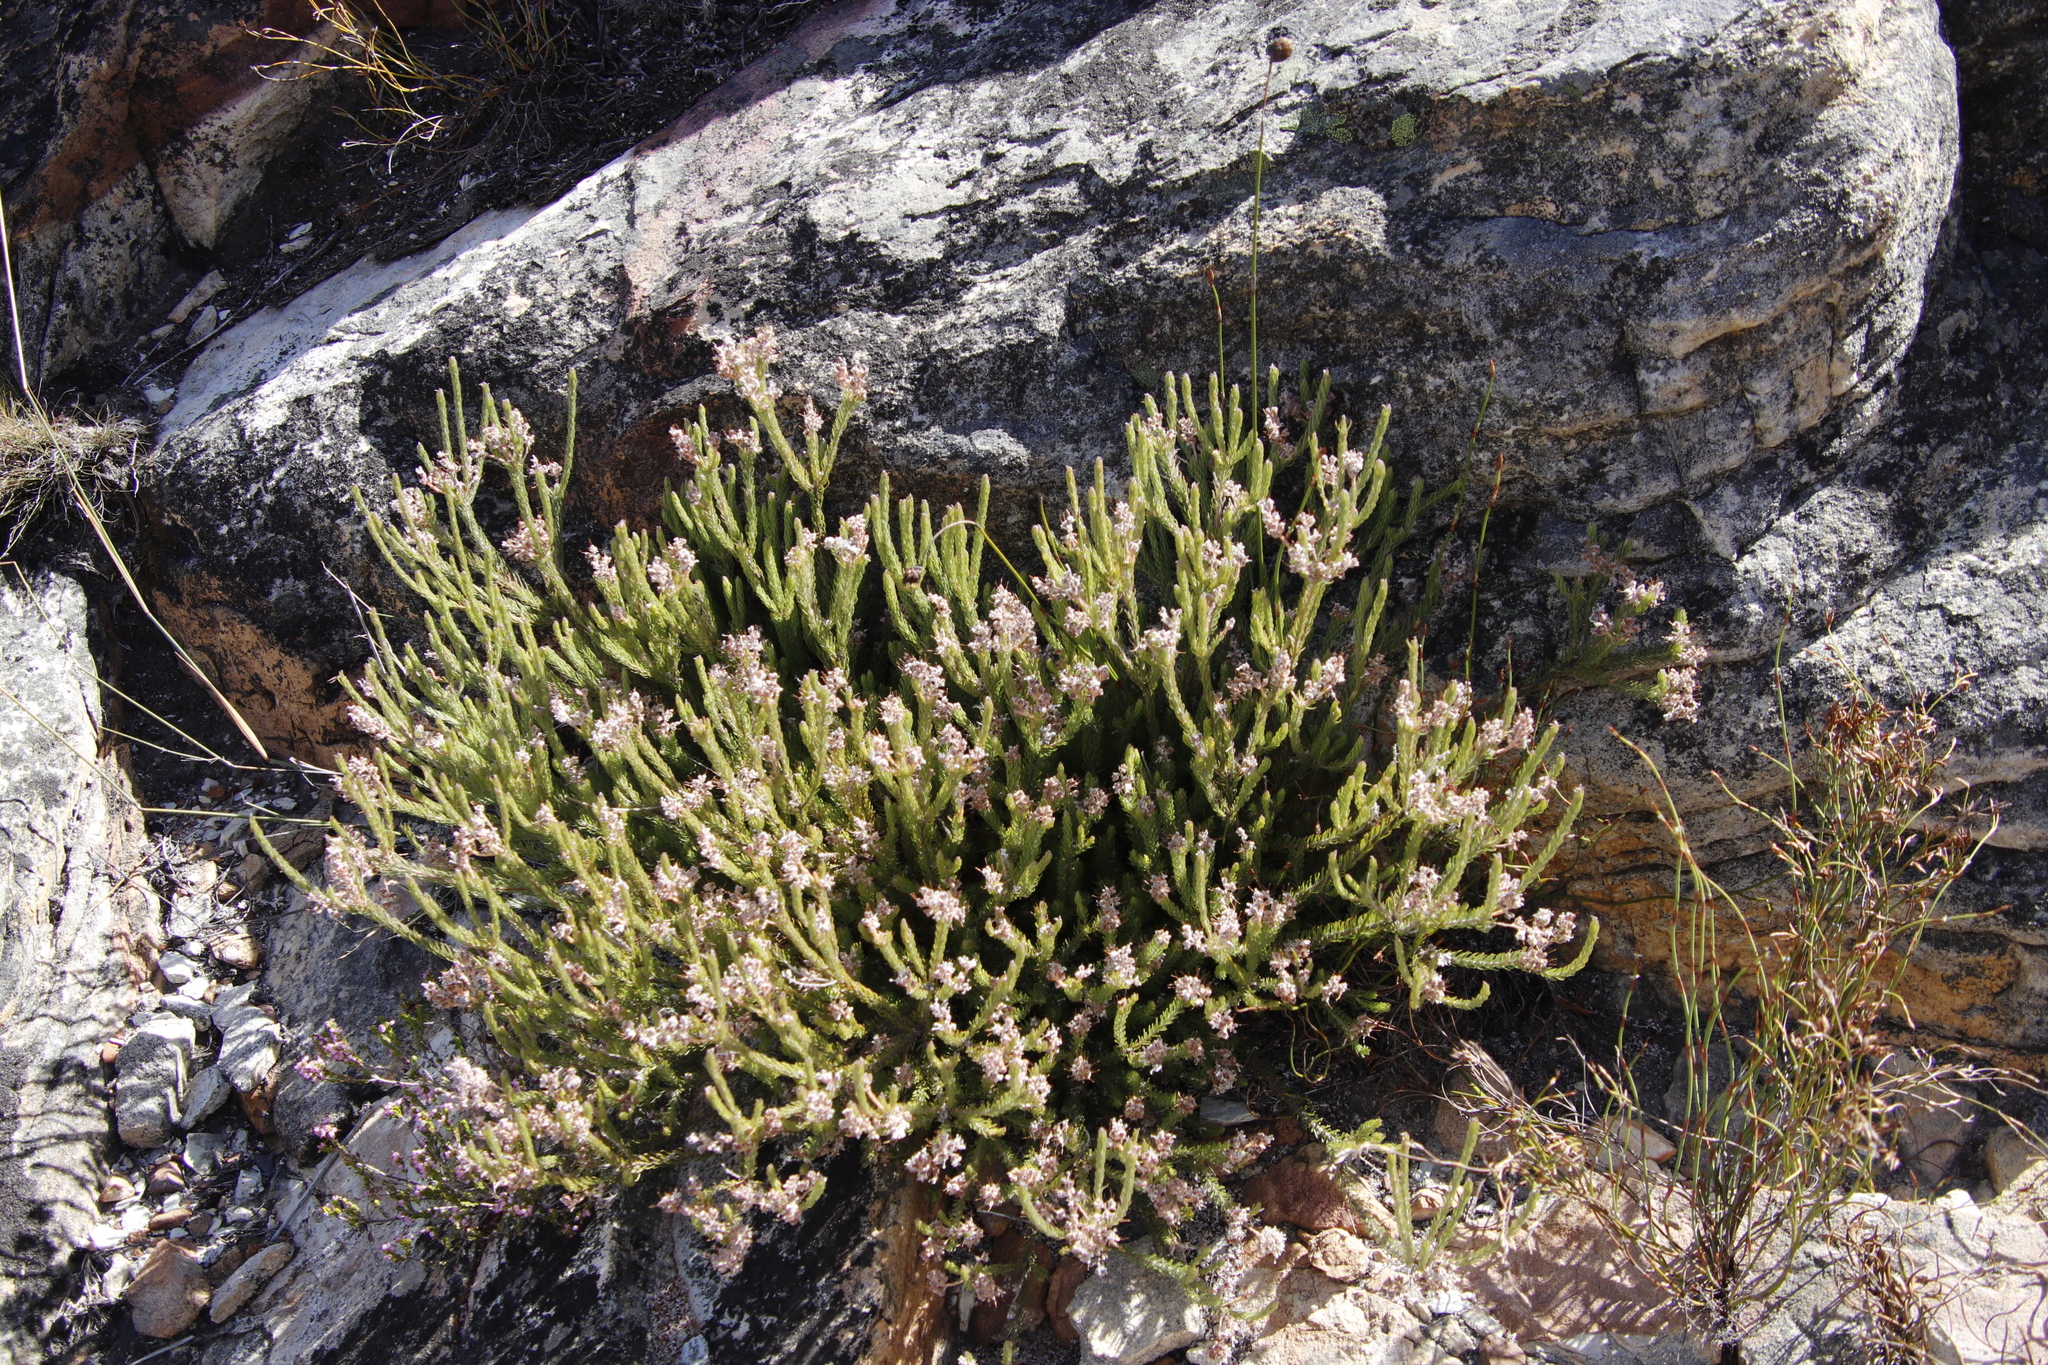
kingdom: Plantae
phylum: Tracheophyta
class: Magnoliopsida
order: Proteales
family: Proteaceae
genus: Spatalla
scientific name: Spatalla incurva
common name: Swan-head spoon
